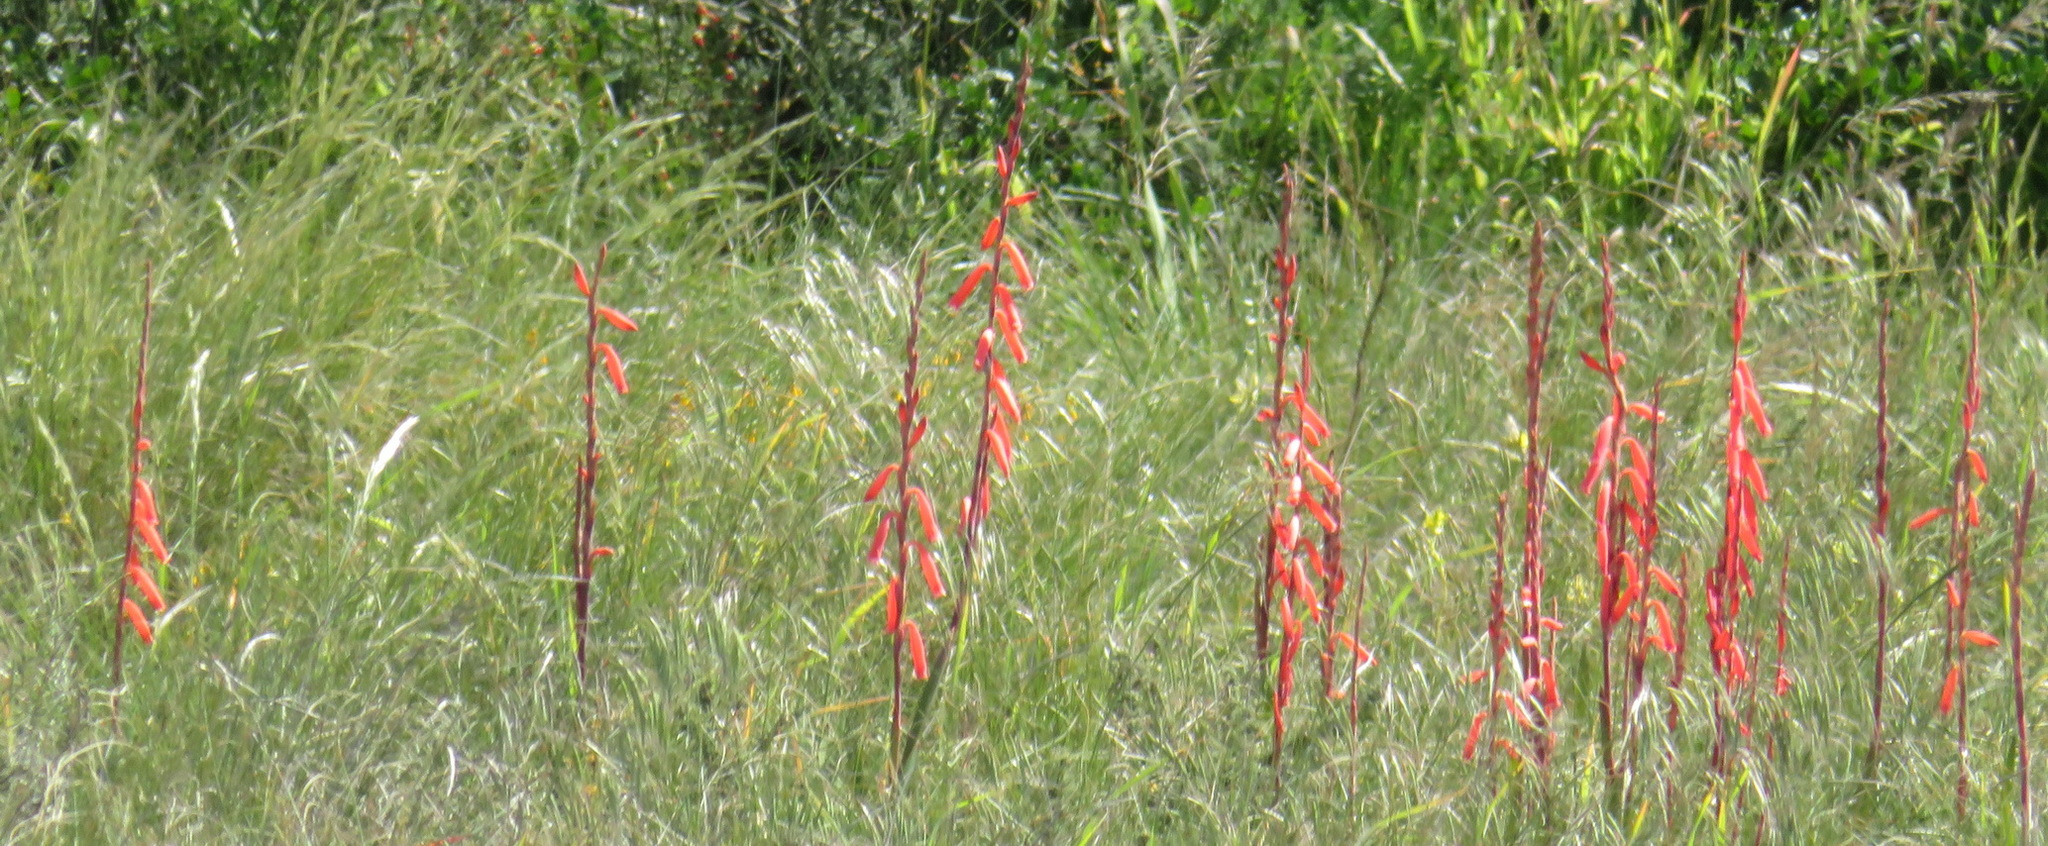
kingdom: Plantae
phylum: Tracheophyta
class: Liliopsida
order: Asparagales
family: Iridaceae
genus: Watsonia
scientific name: Watsonia aletroides
